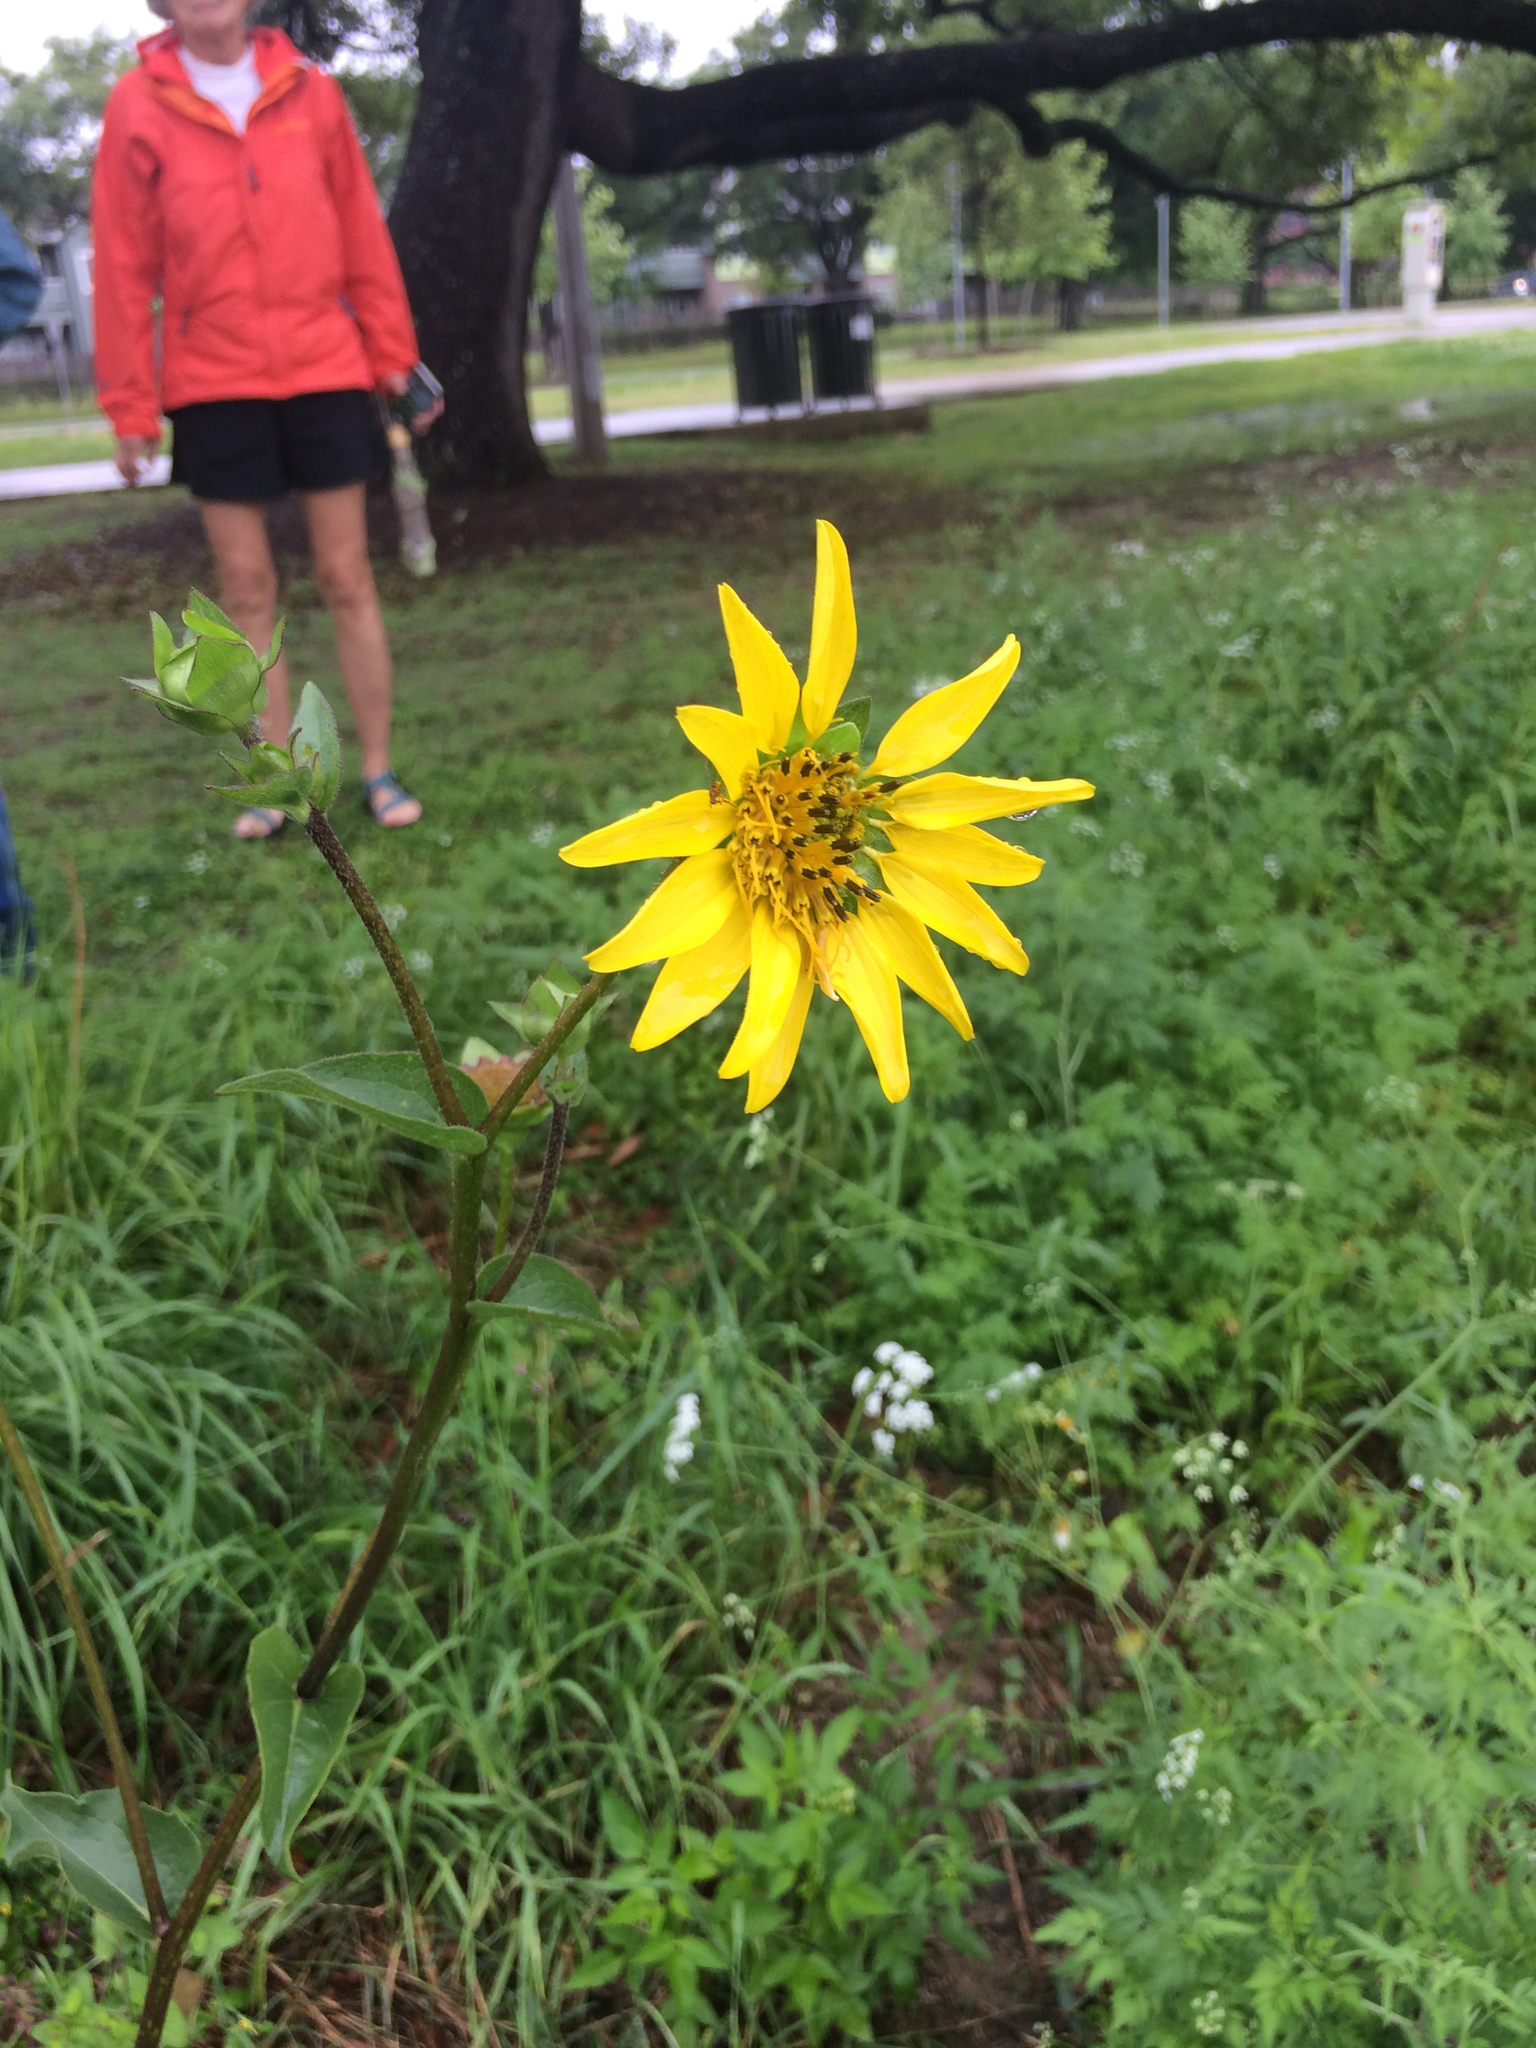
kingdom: Plantae
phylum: Tracheophyta
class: Magnoliopsida
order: Asterales
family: Asteraceae
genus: Silphium
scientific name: Silphium radula
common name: Roughleaf rosinweed
